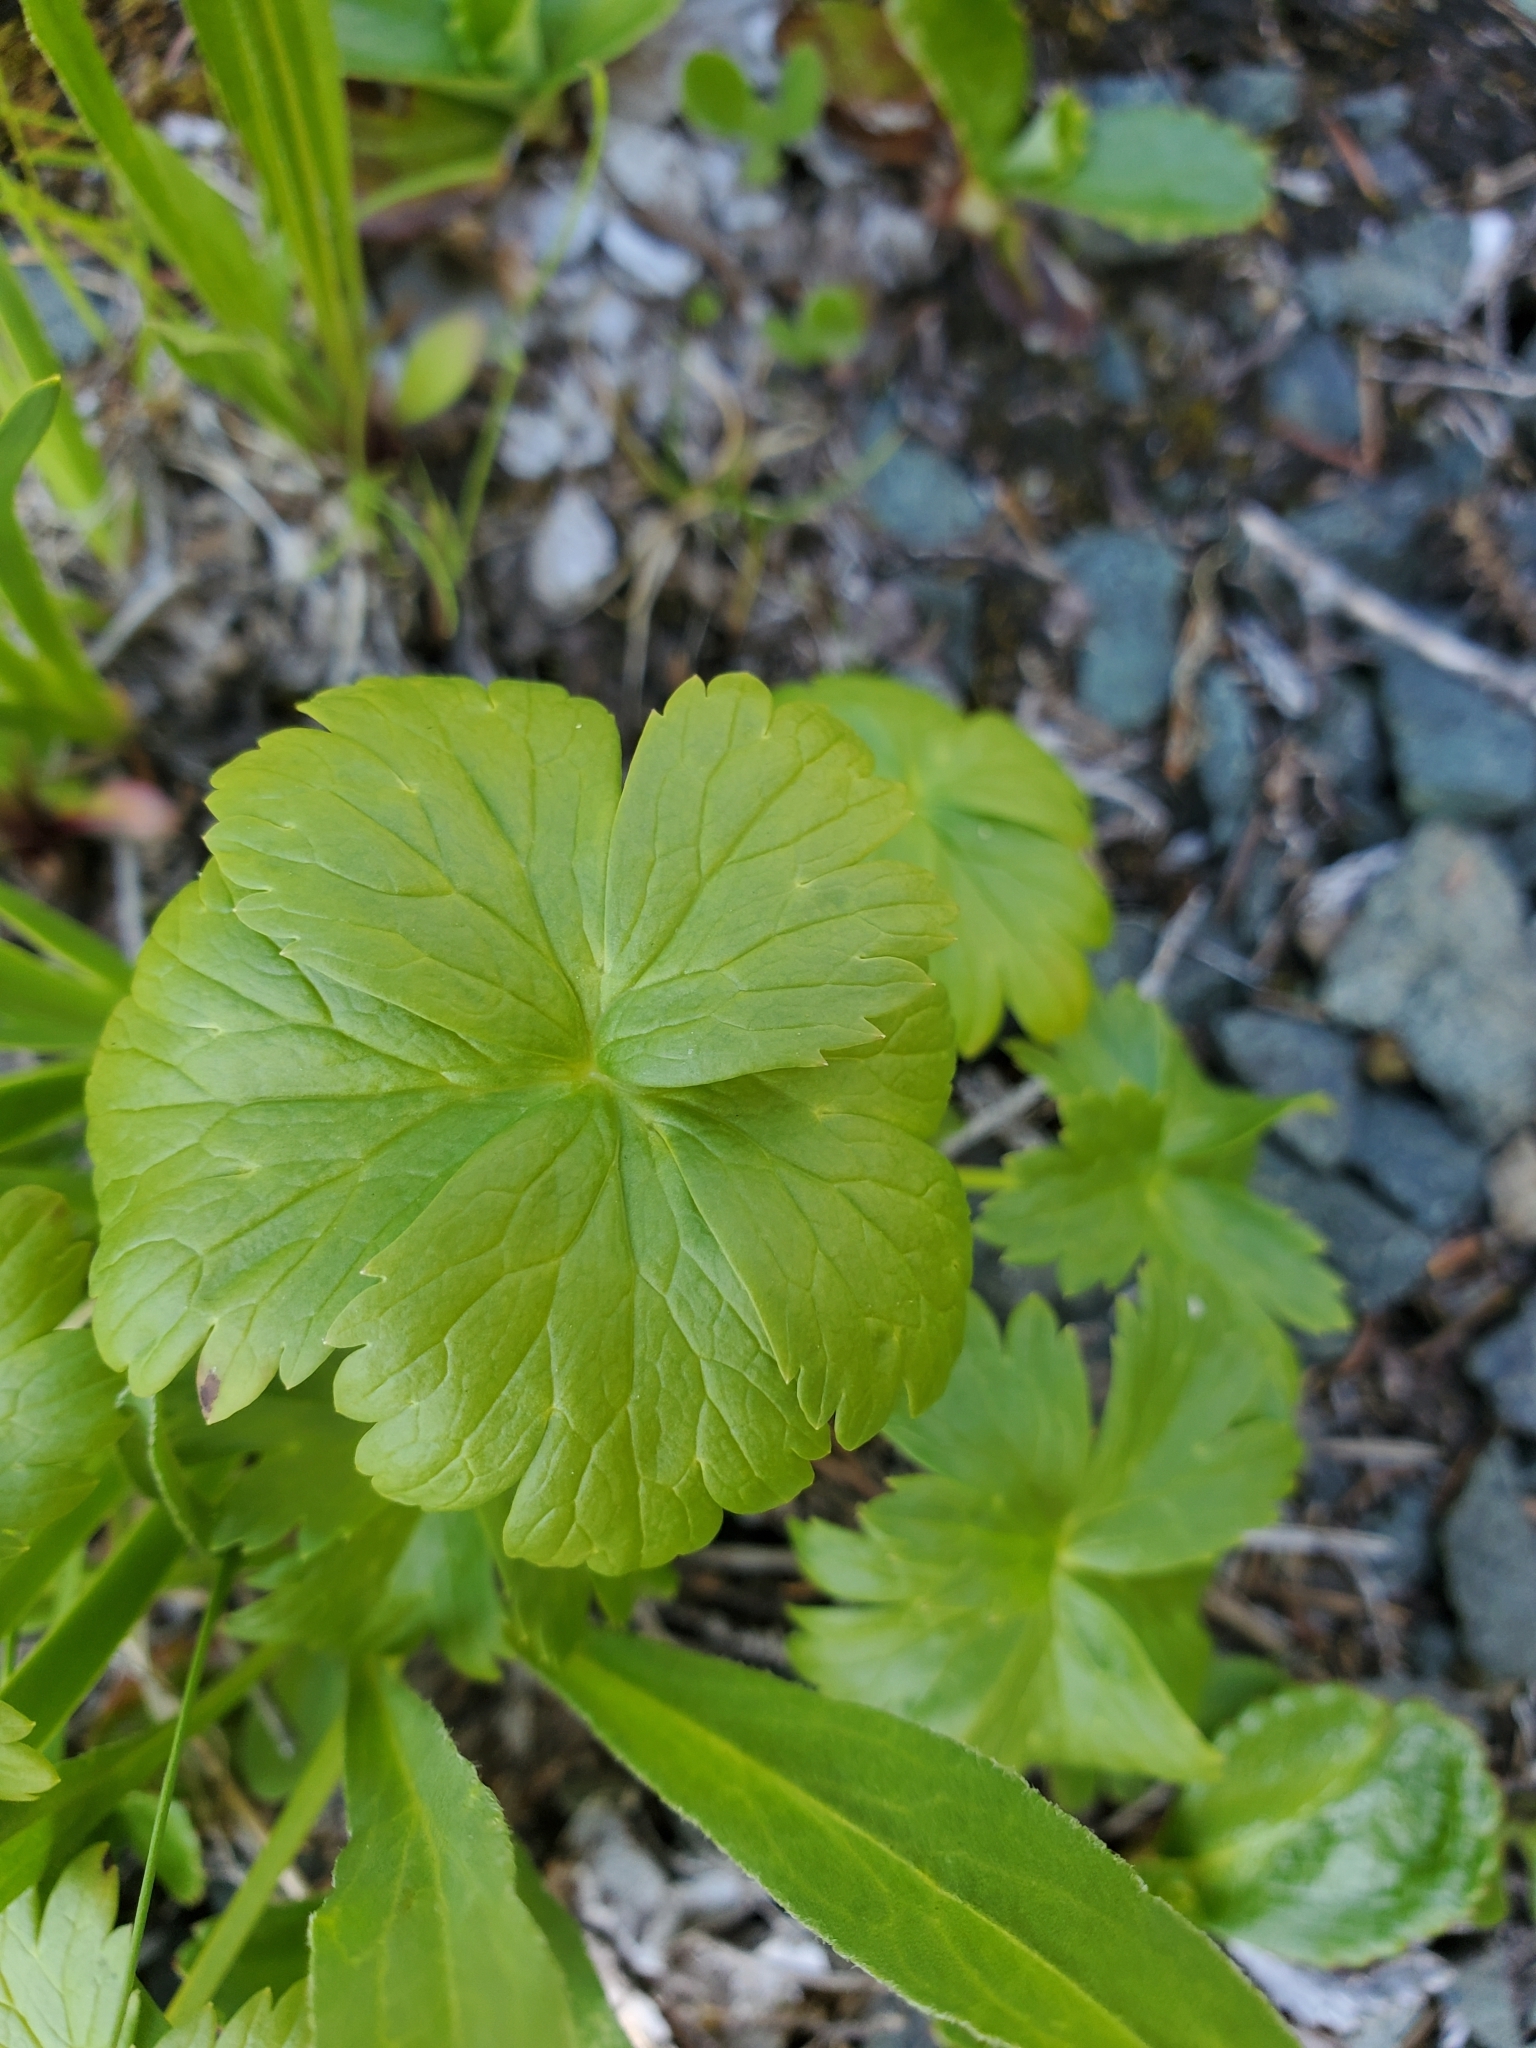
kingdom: Plantae
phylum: Tracheophyta
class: Magnoliopsida
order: Ranunculales
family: Ranunculaceae
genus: Trollius
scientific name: Trollius laxus
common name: American globeflower
